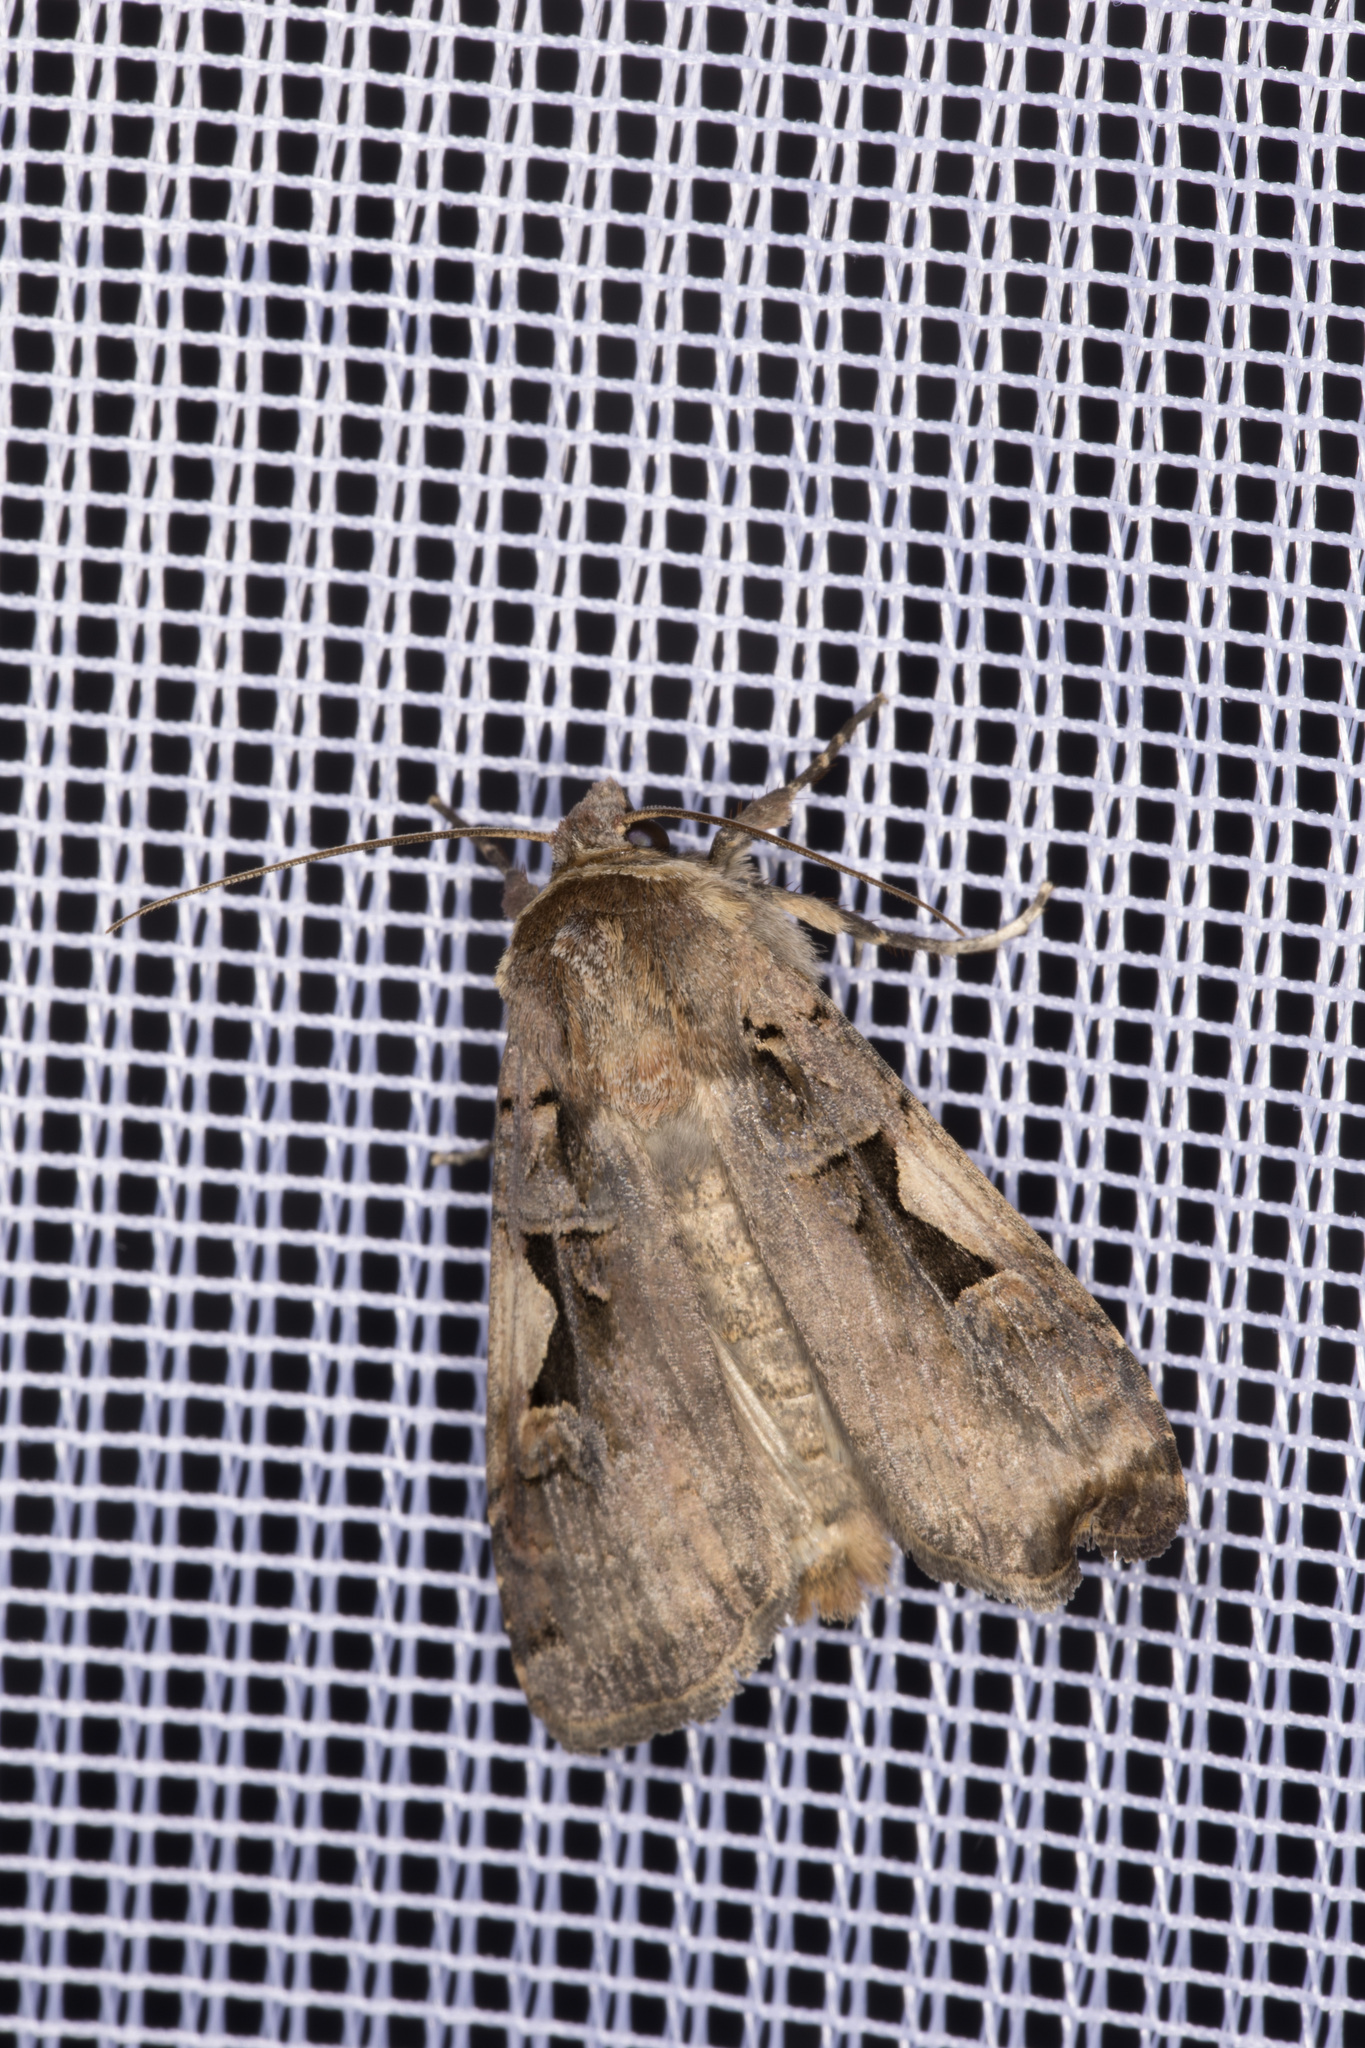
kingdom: Animalia
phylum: Arthropoda
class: Insecta
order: Lepidoptera
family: Noctuidae
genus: Xestia
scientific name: Xestia c-nigrum
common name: Setaceous hebrew character
